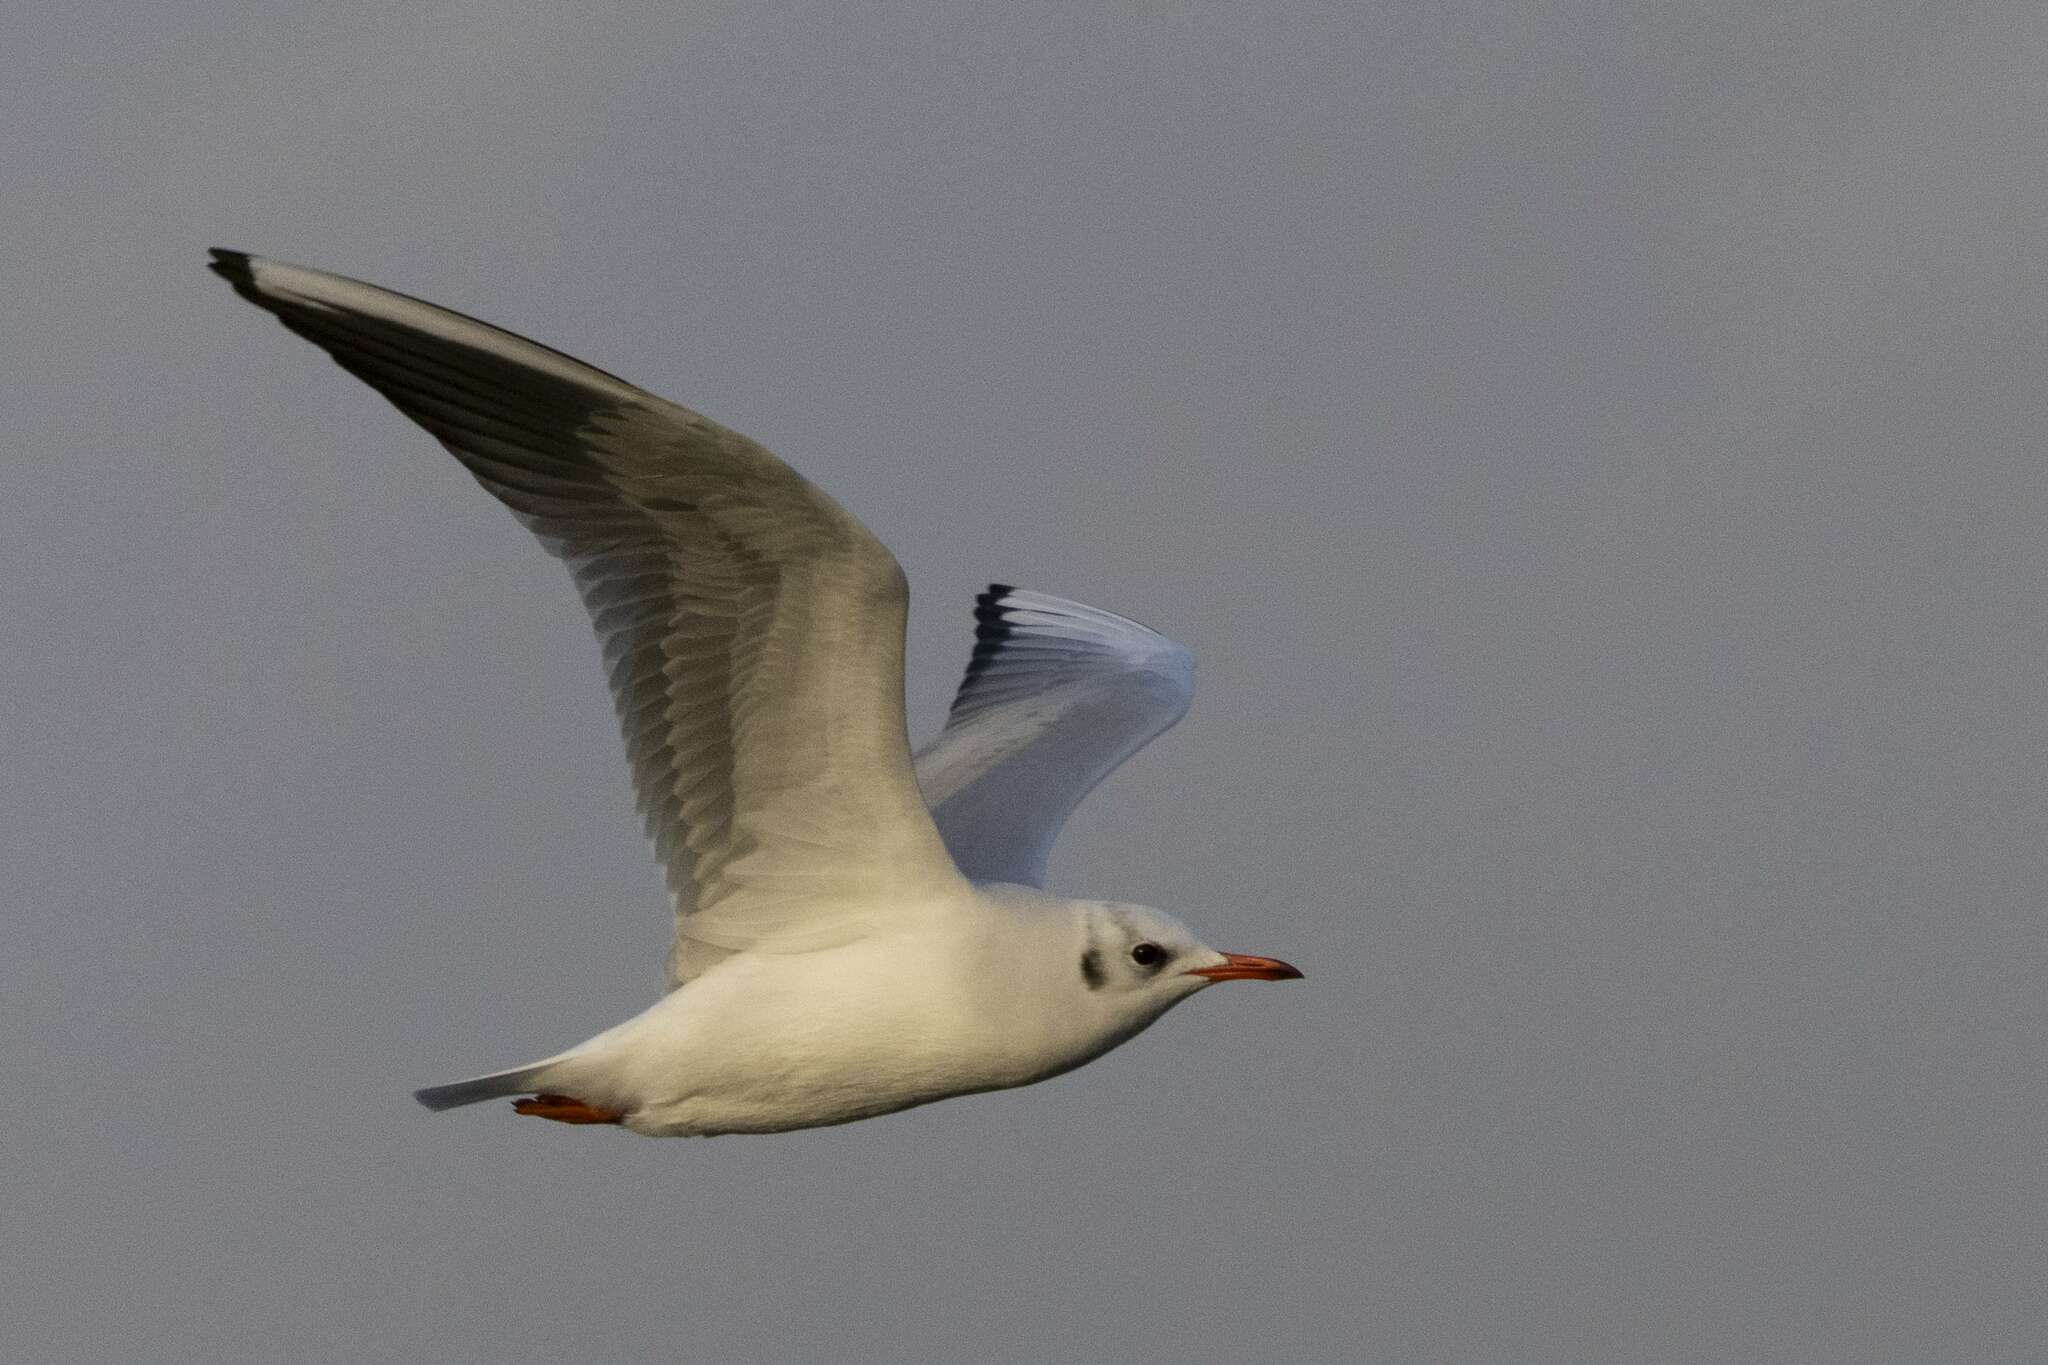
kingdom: Animalia
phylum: Chordata
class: Aves
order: Charadriiformes
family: Laridae
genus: Chroicocephalus
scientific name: Chroicocephalus ridibundus
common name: Black-headed gull
